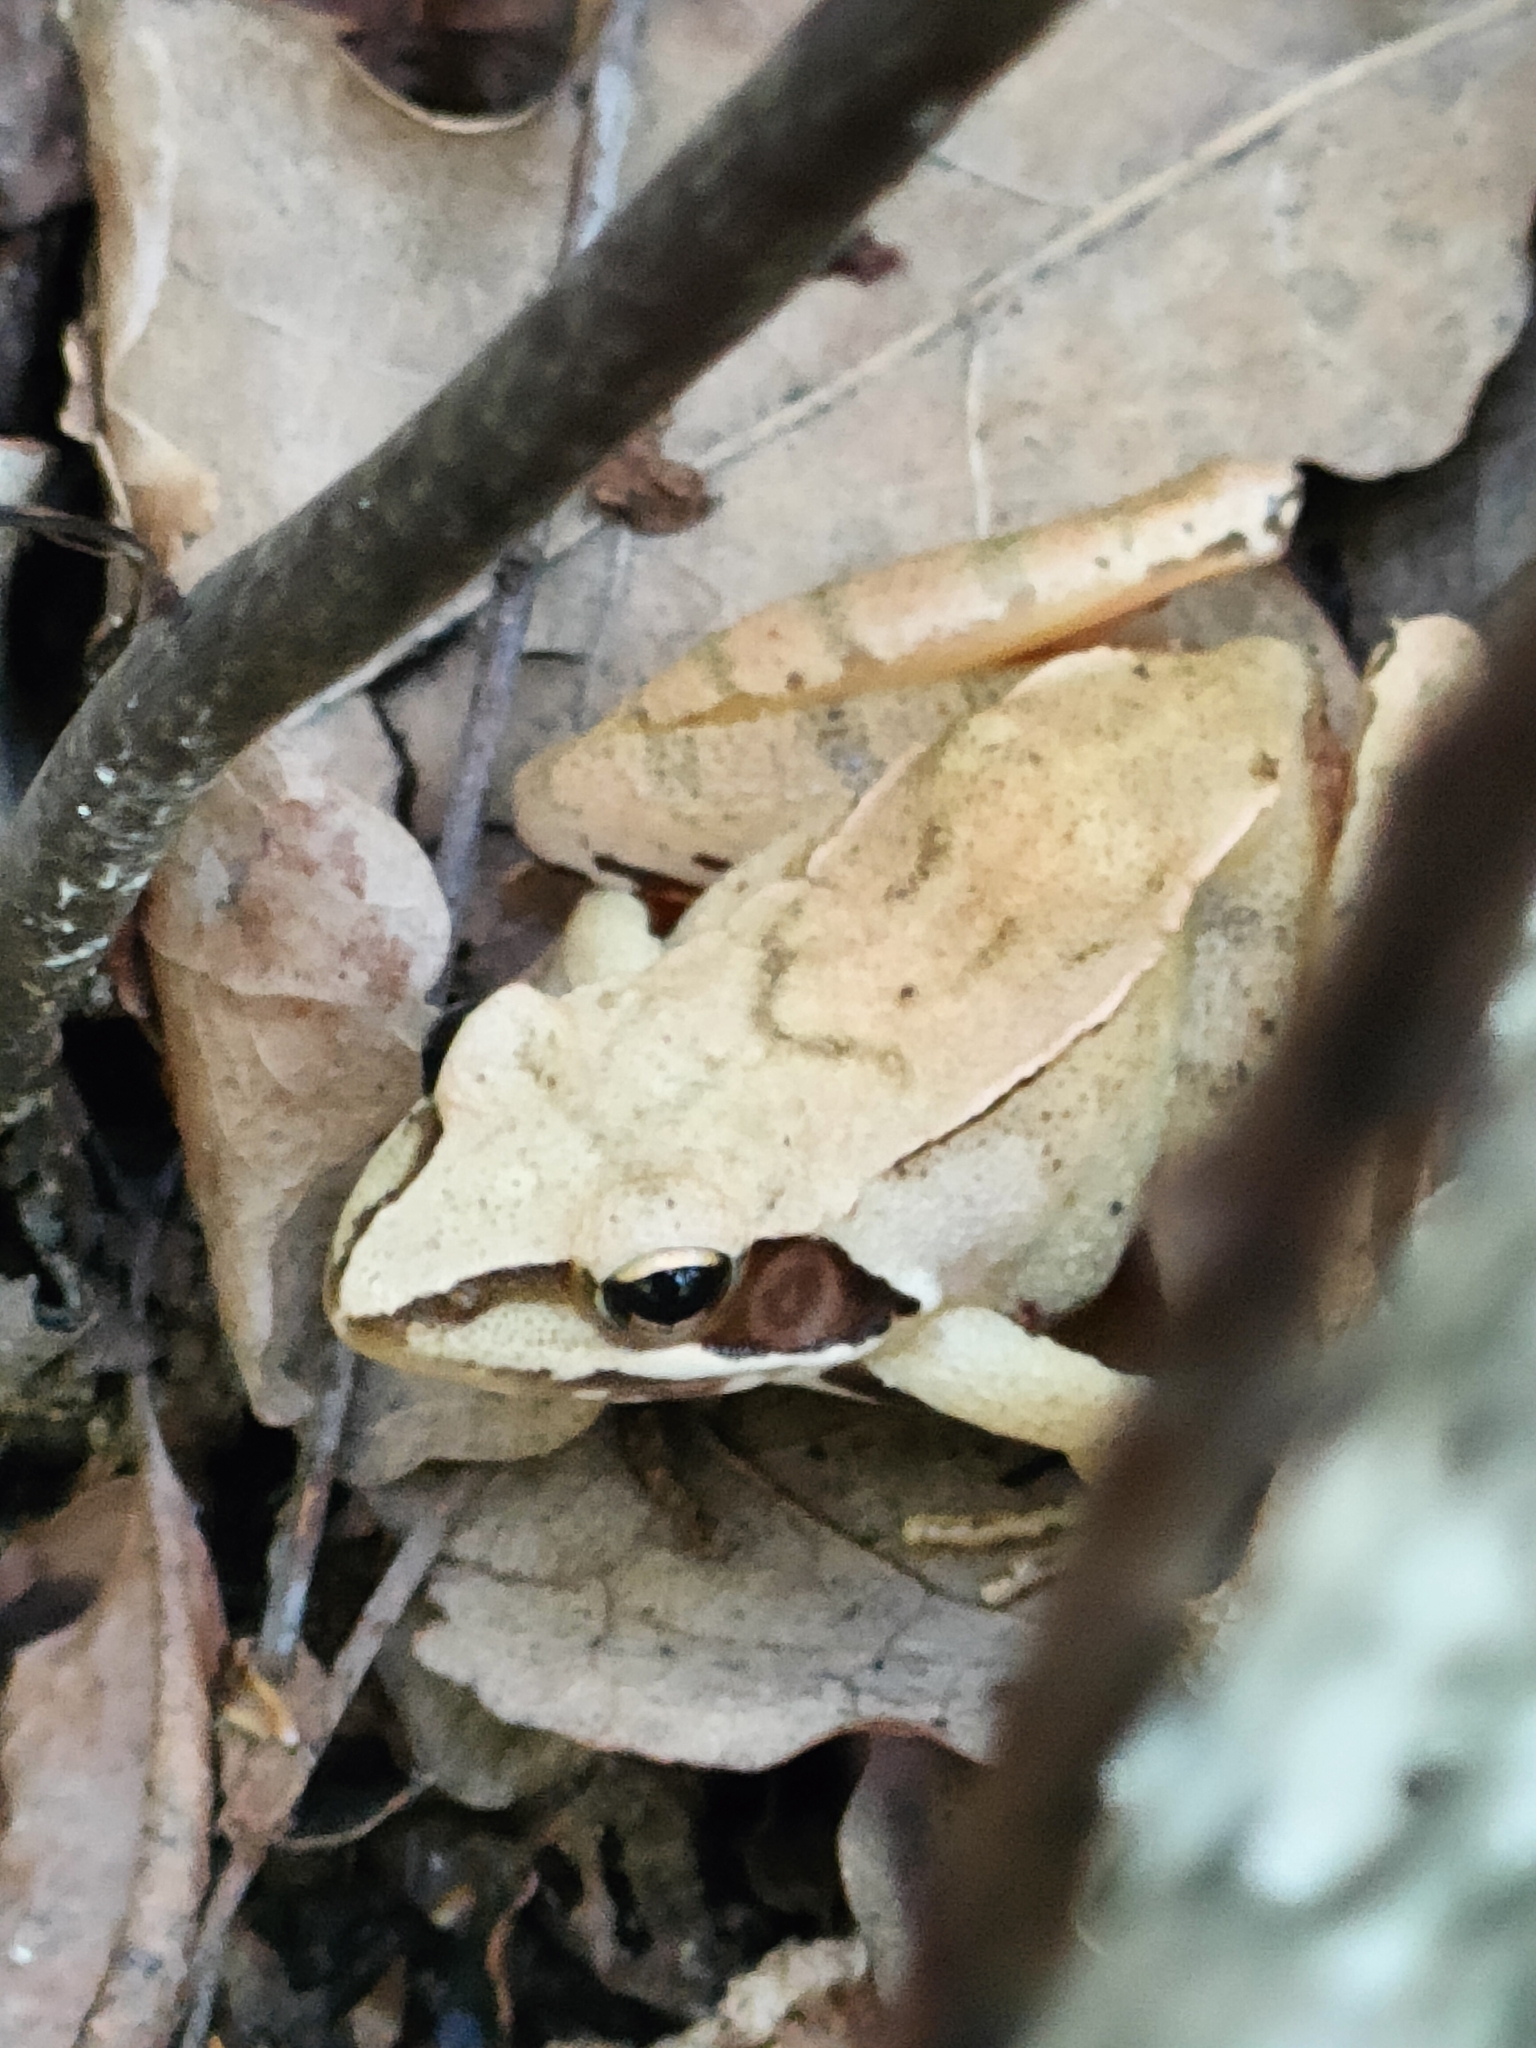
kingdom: Animalia
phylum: Chordata
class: Amphibia
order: Anura
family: Ranidae
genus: Rana
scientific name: Rana dalmatina
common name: Agile frog
